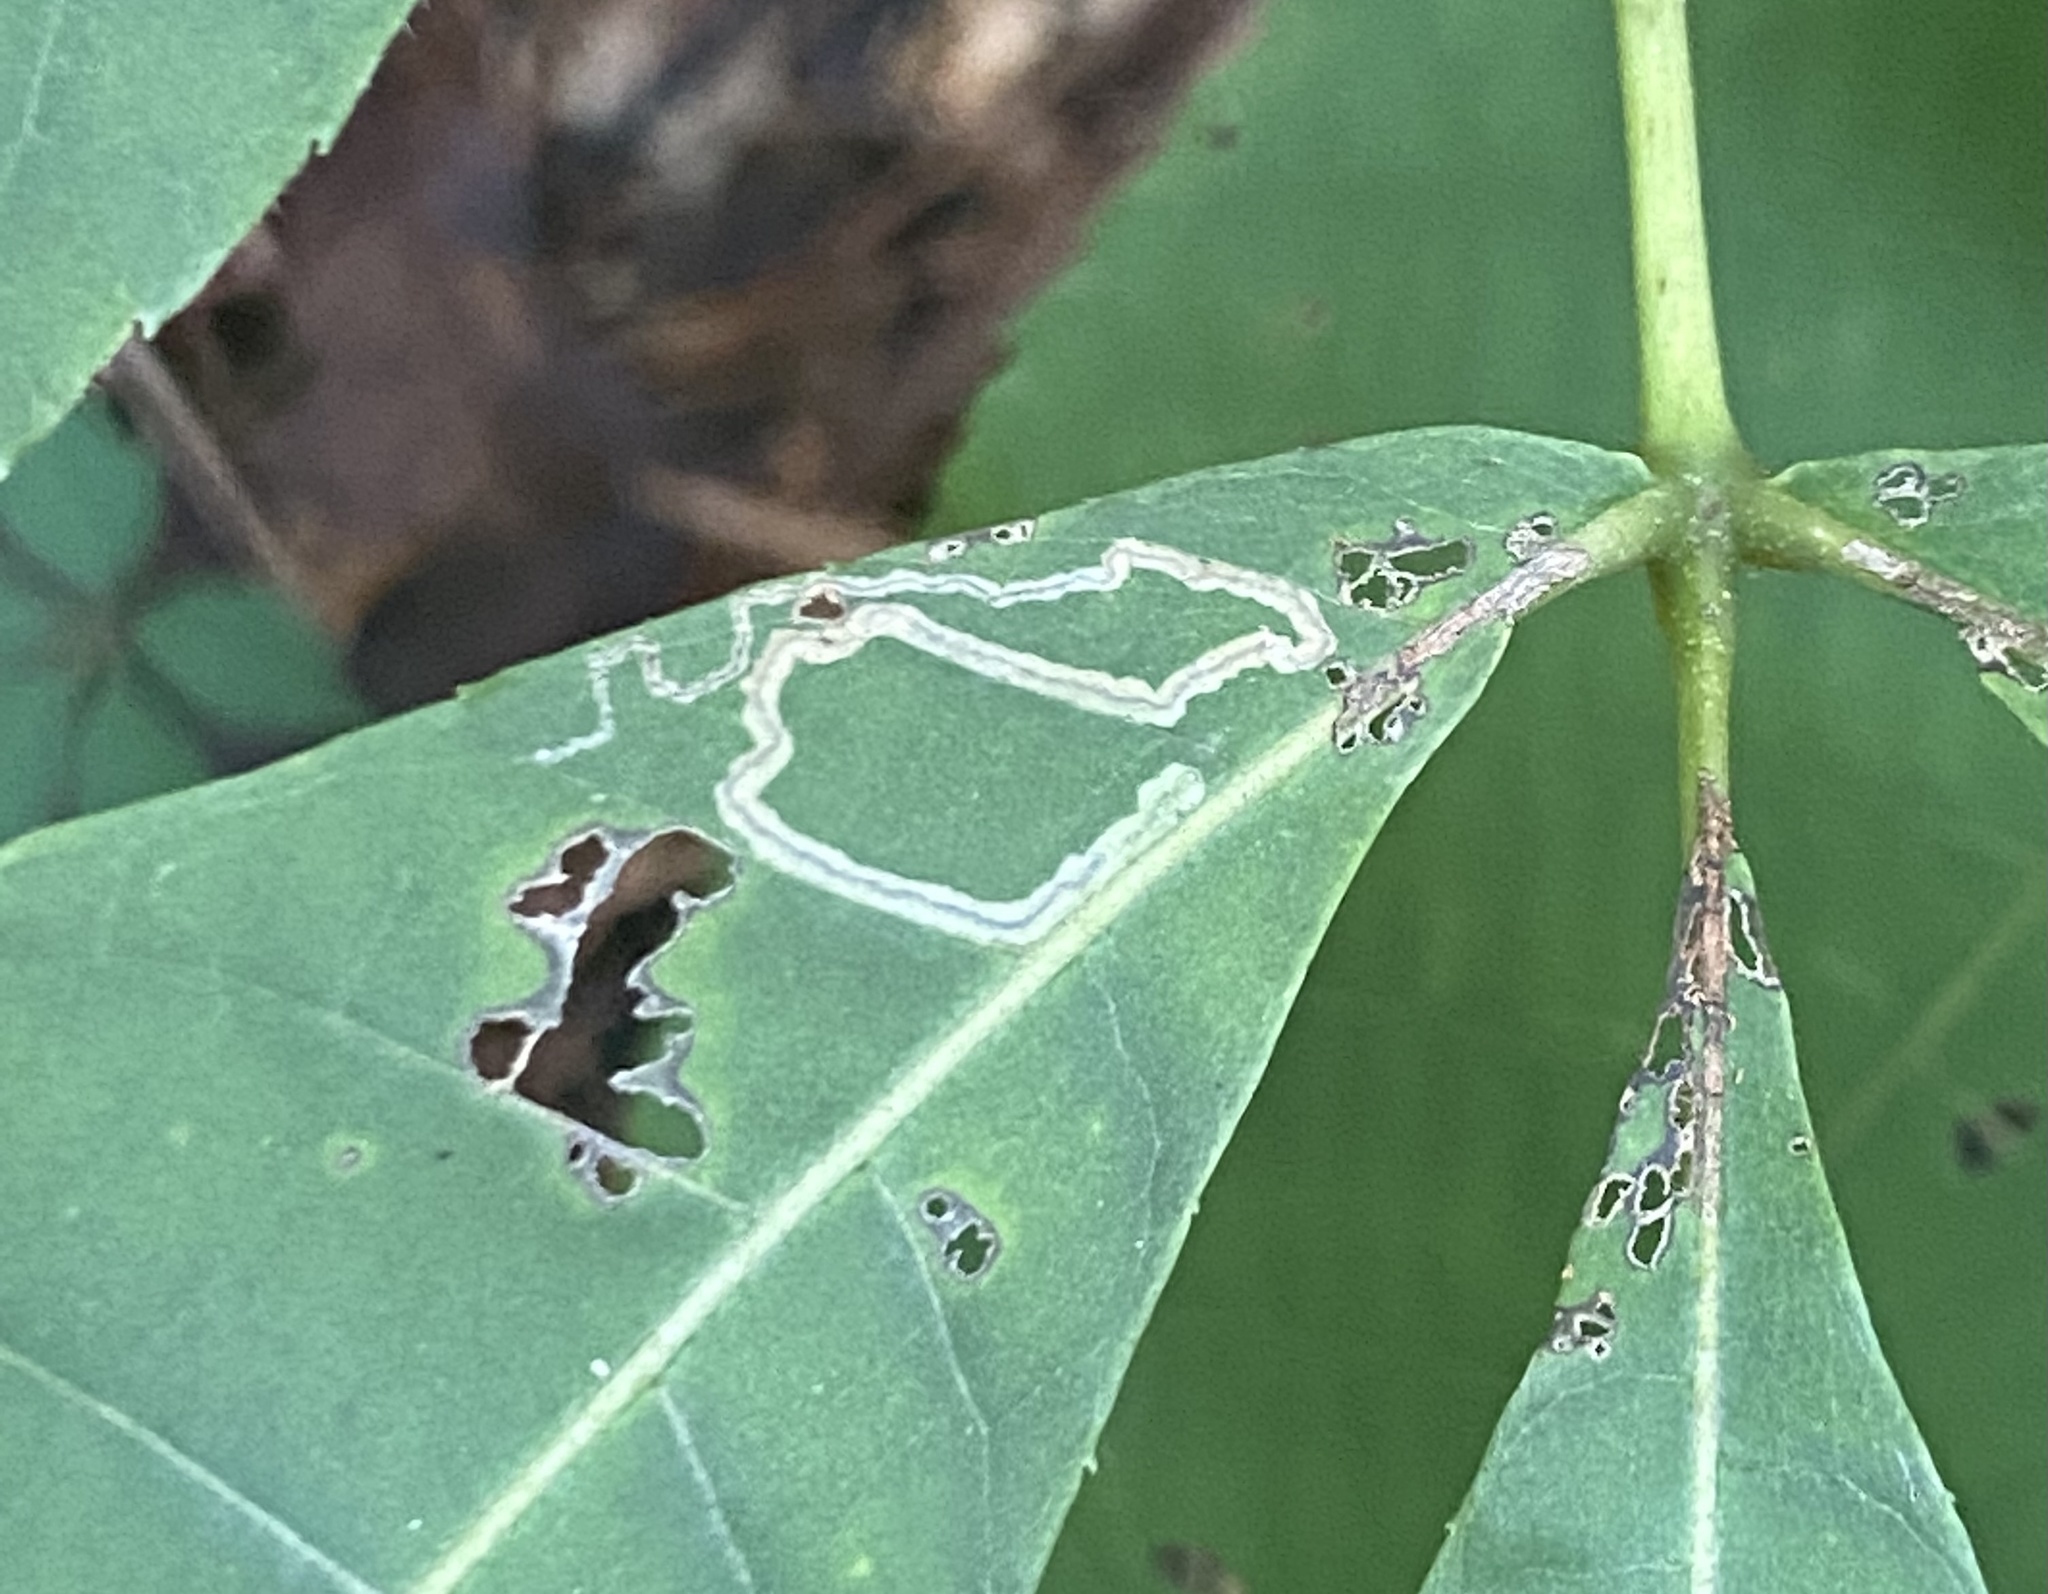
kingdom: Animalia
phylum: Arthropoda
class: Insecta
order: Lepidoptera
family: Nepticulidae
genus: Stigmella
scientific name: Stigmella caryaefoliella
